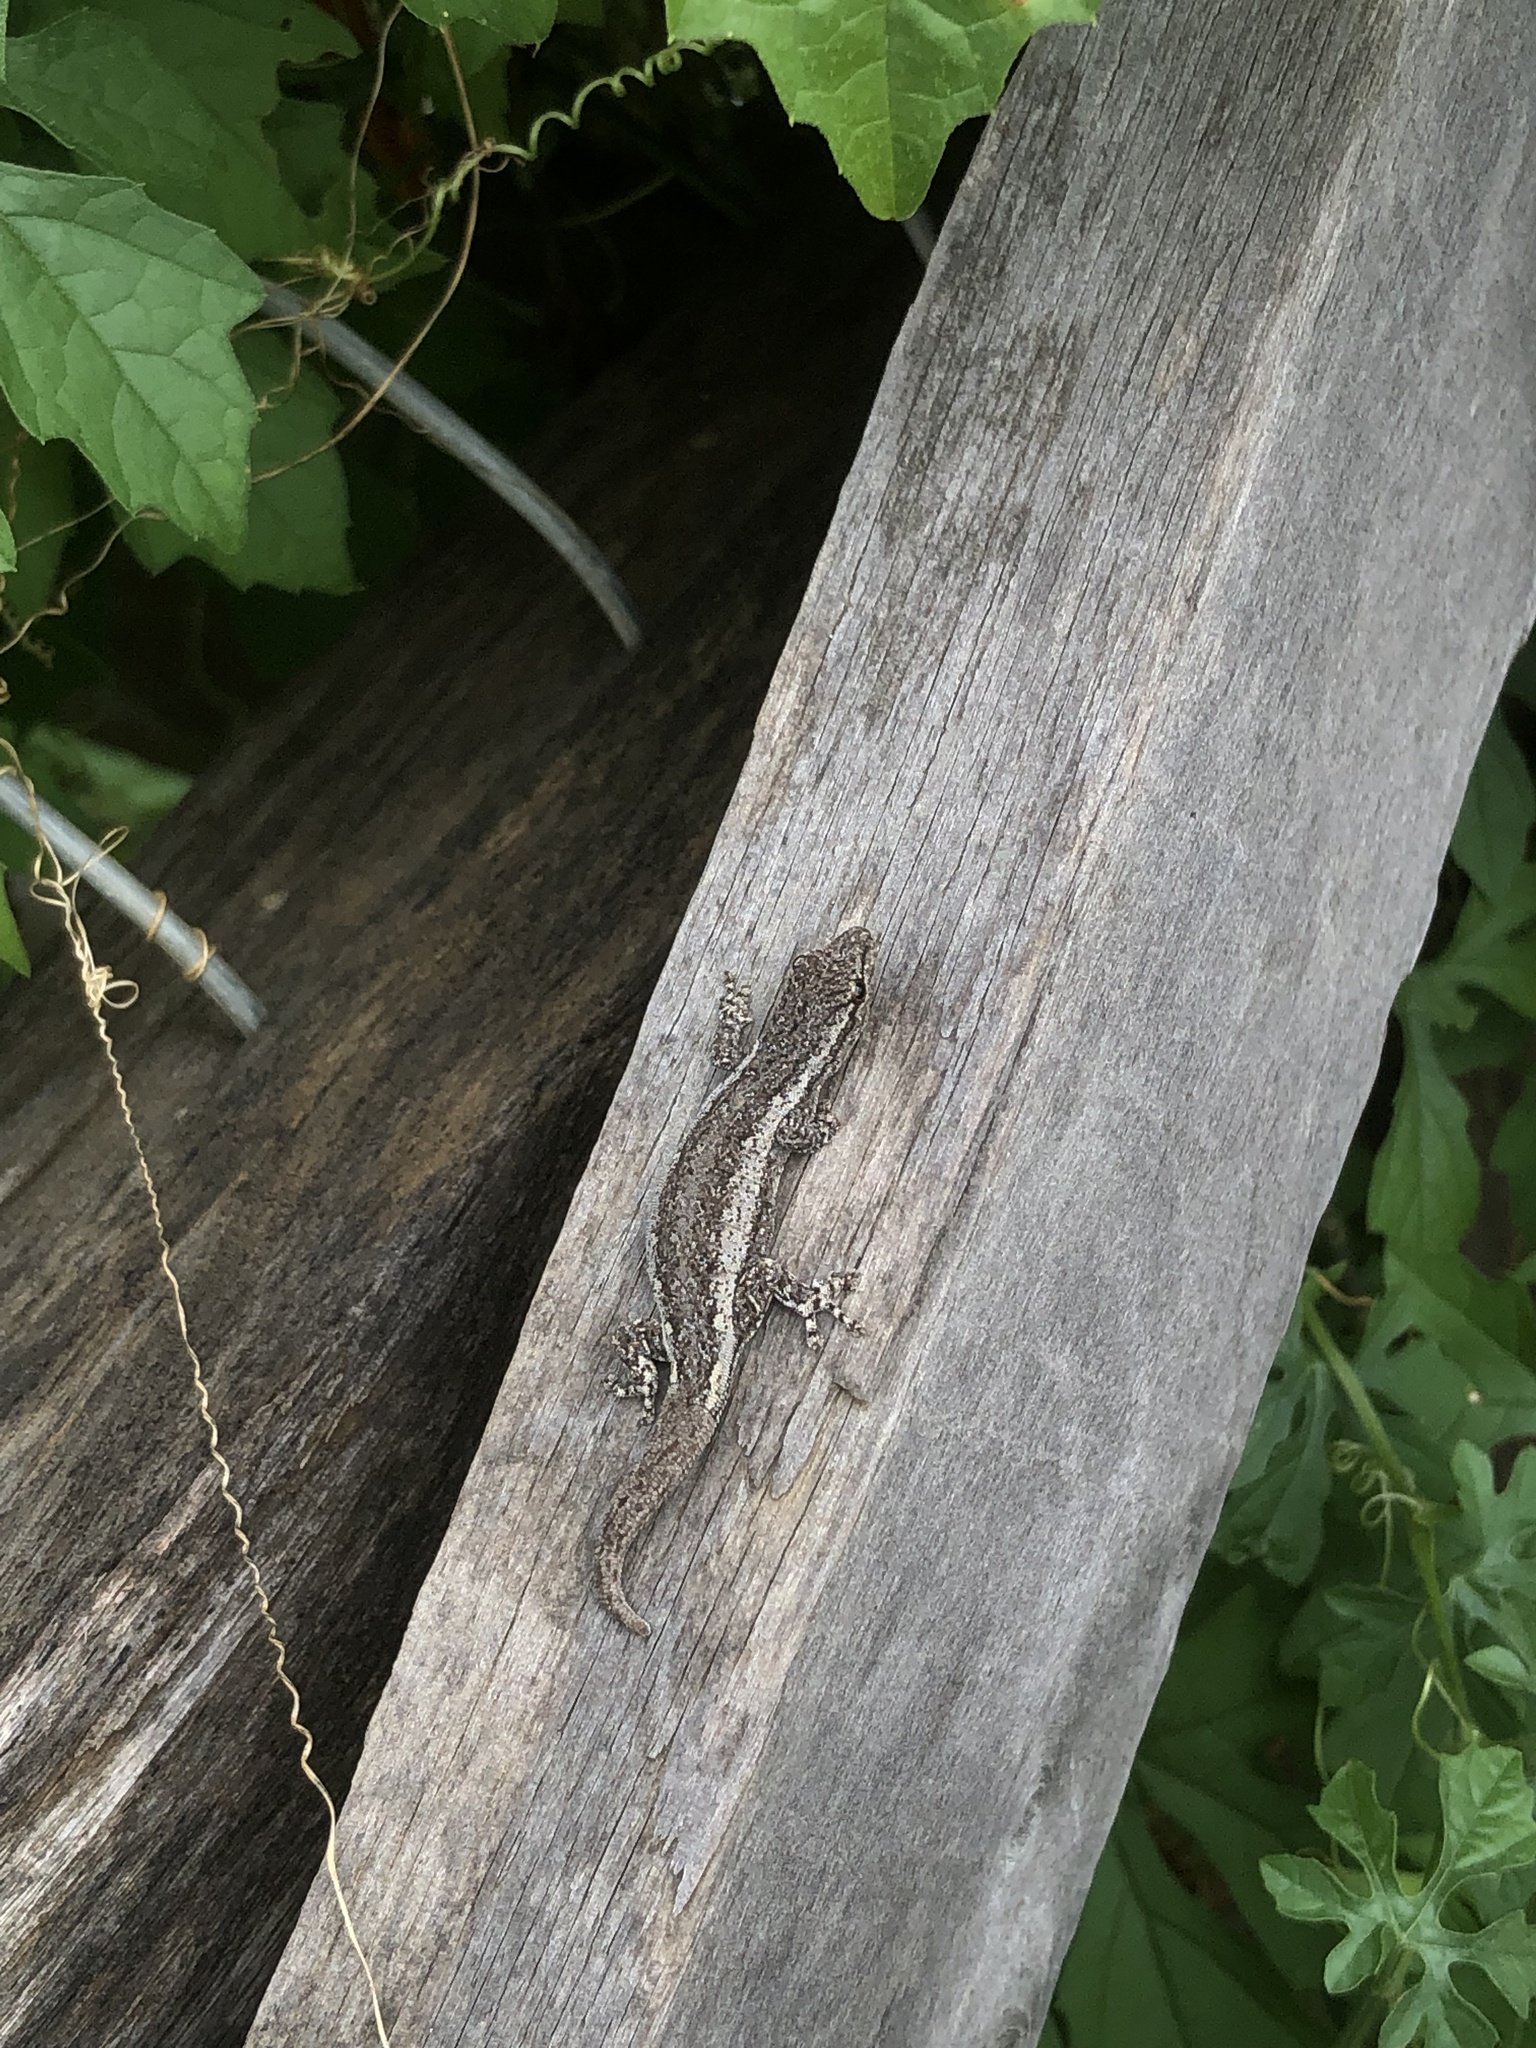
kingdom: Animalia
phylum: Chordata
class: Squamata
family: Gekkonidae
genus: Lygodactylus
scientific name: Lygodactylus klugei
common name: Kluge's dwarf gecko
